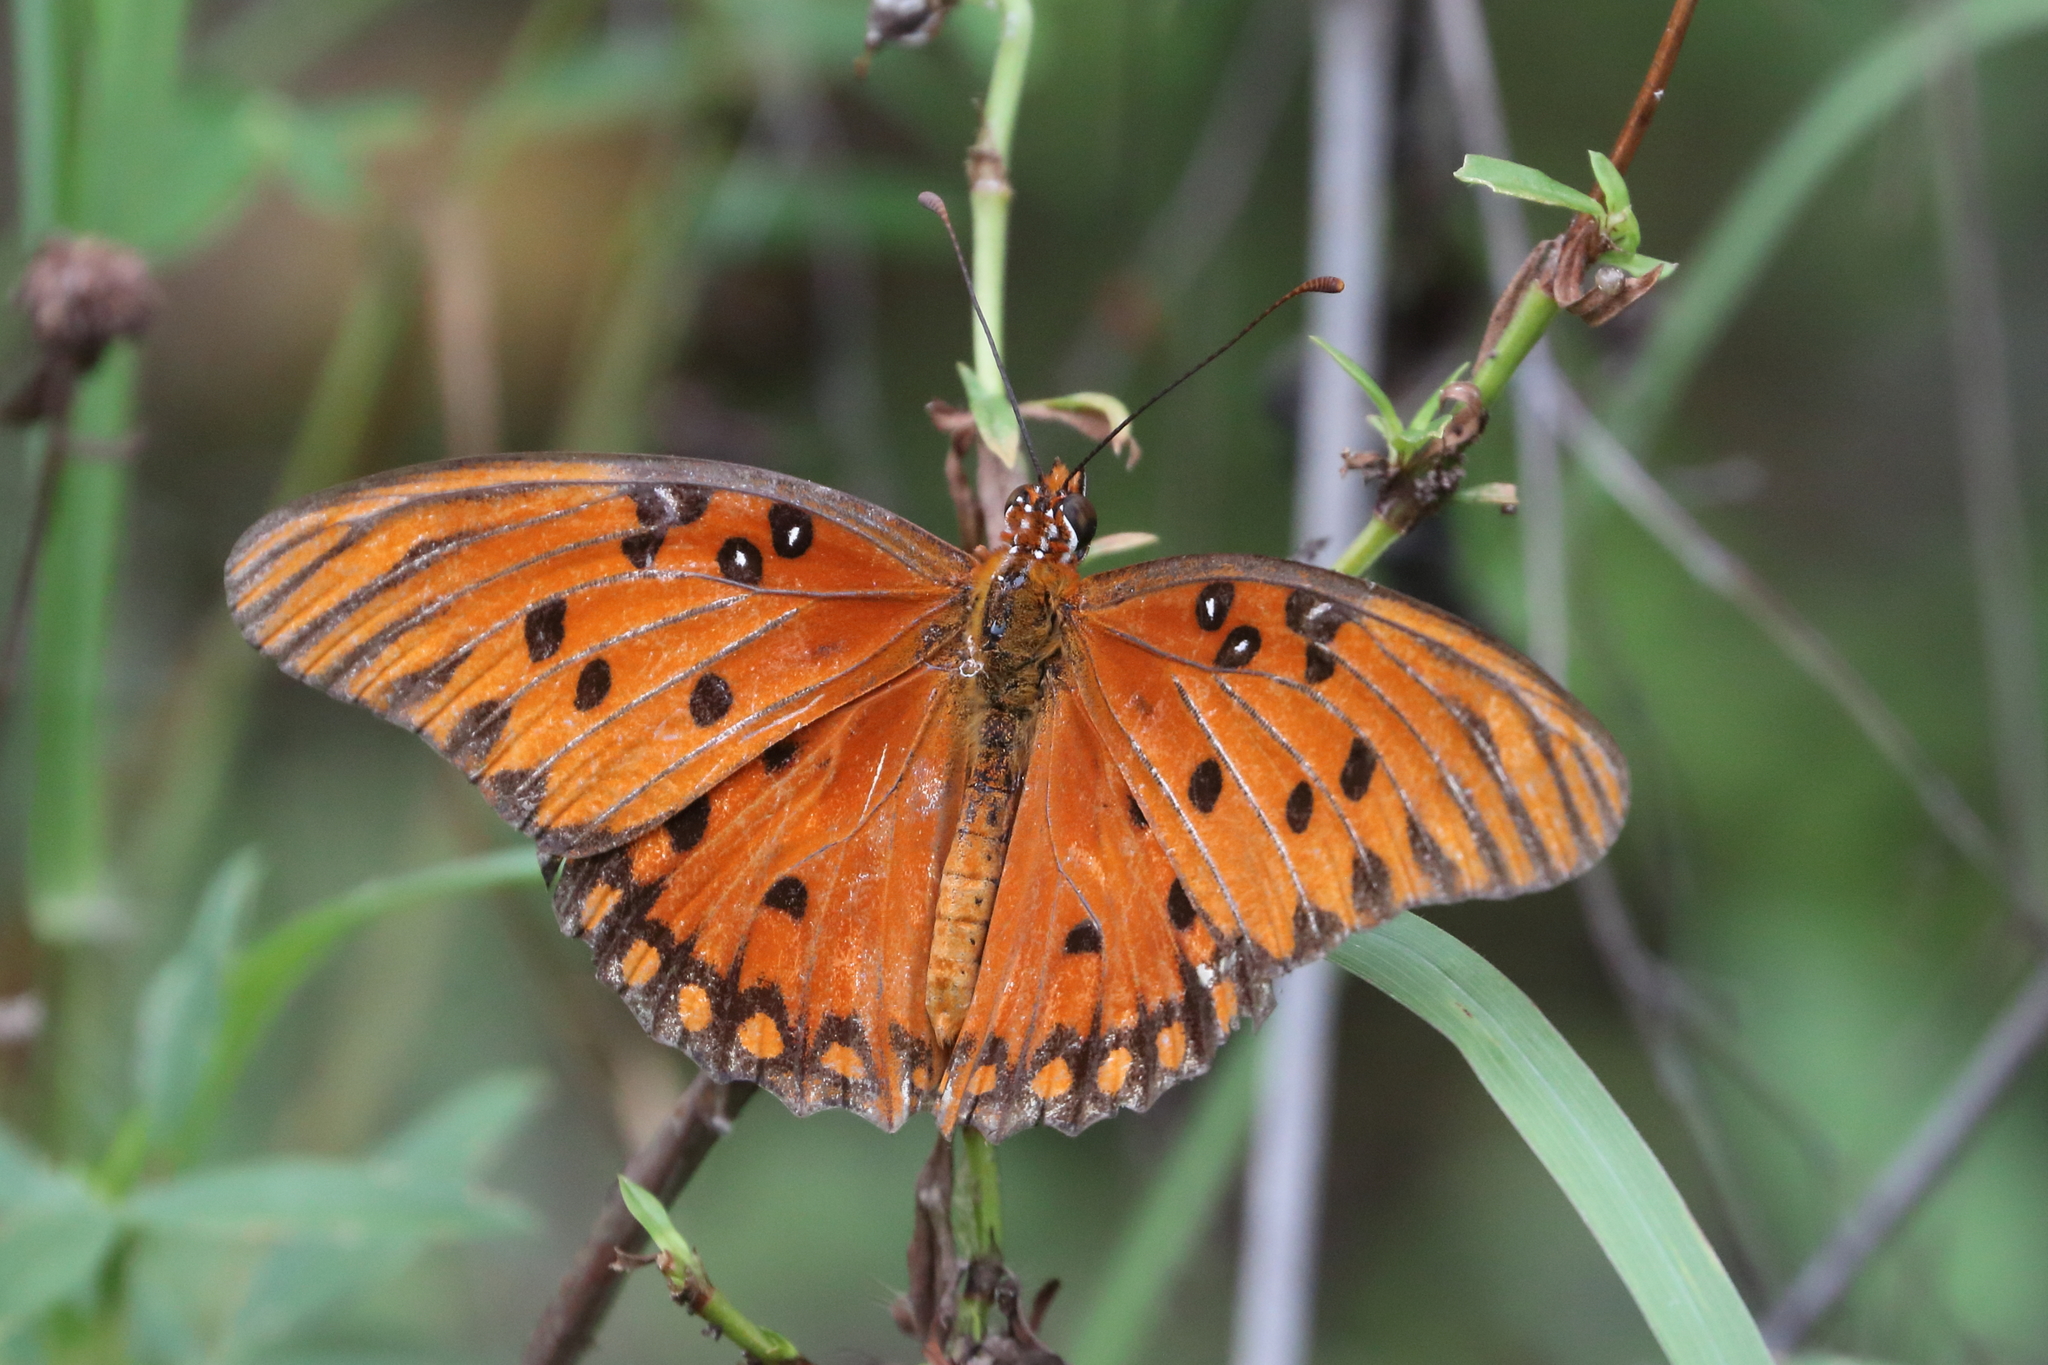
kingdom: Animalia
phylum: Arthropoda
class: Insecta
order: Lepidoptera
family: Nymphalidae
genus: Dione
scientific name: Dione vanillae
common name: Gulf fritillary
